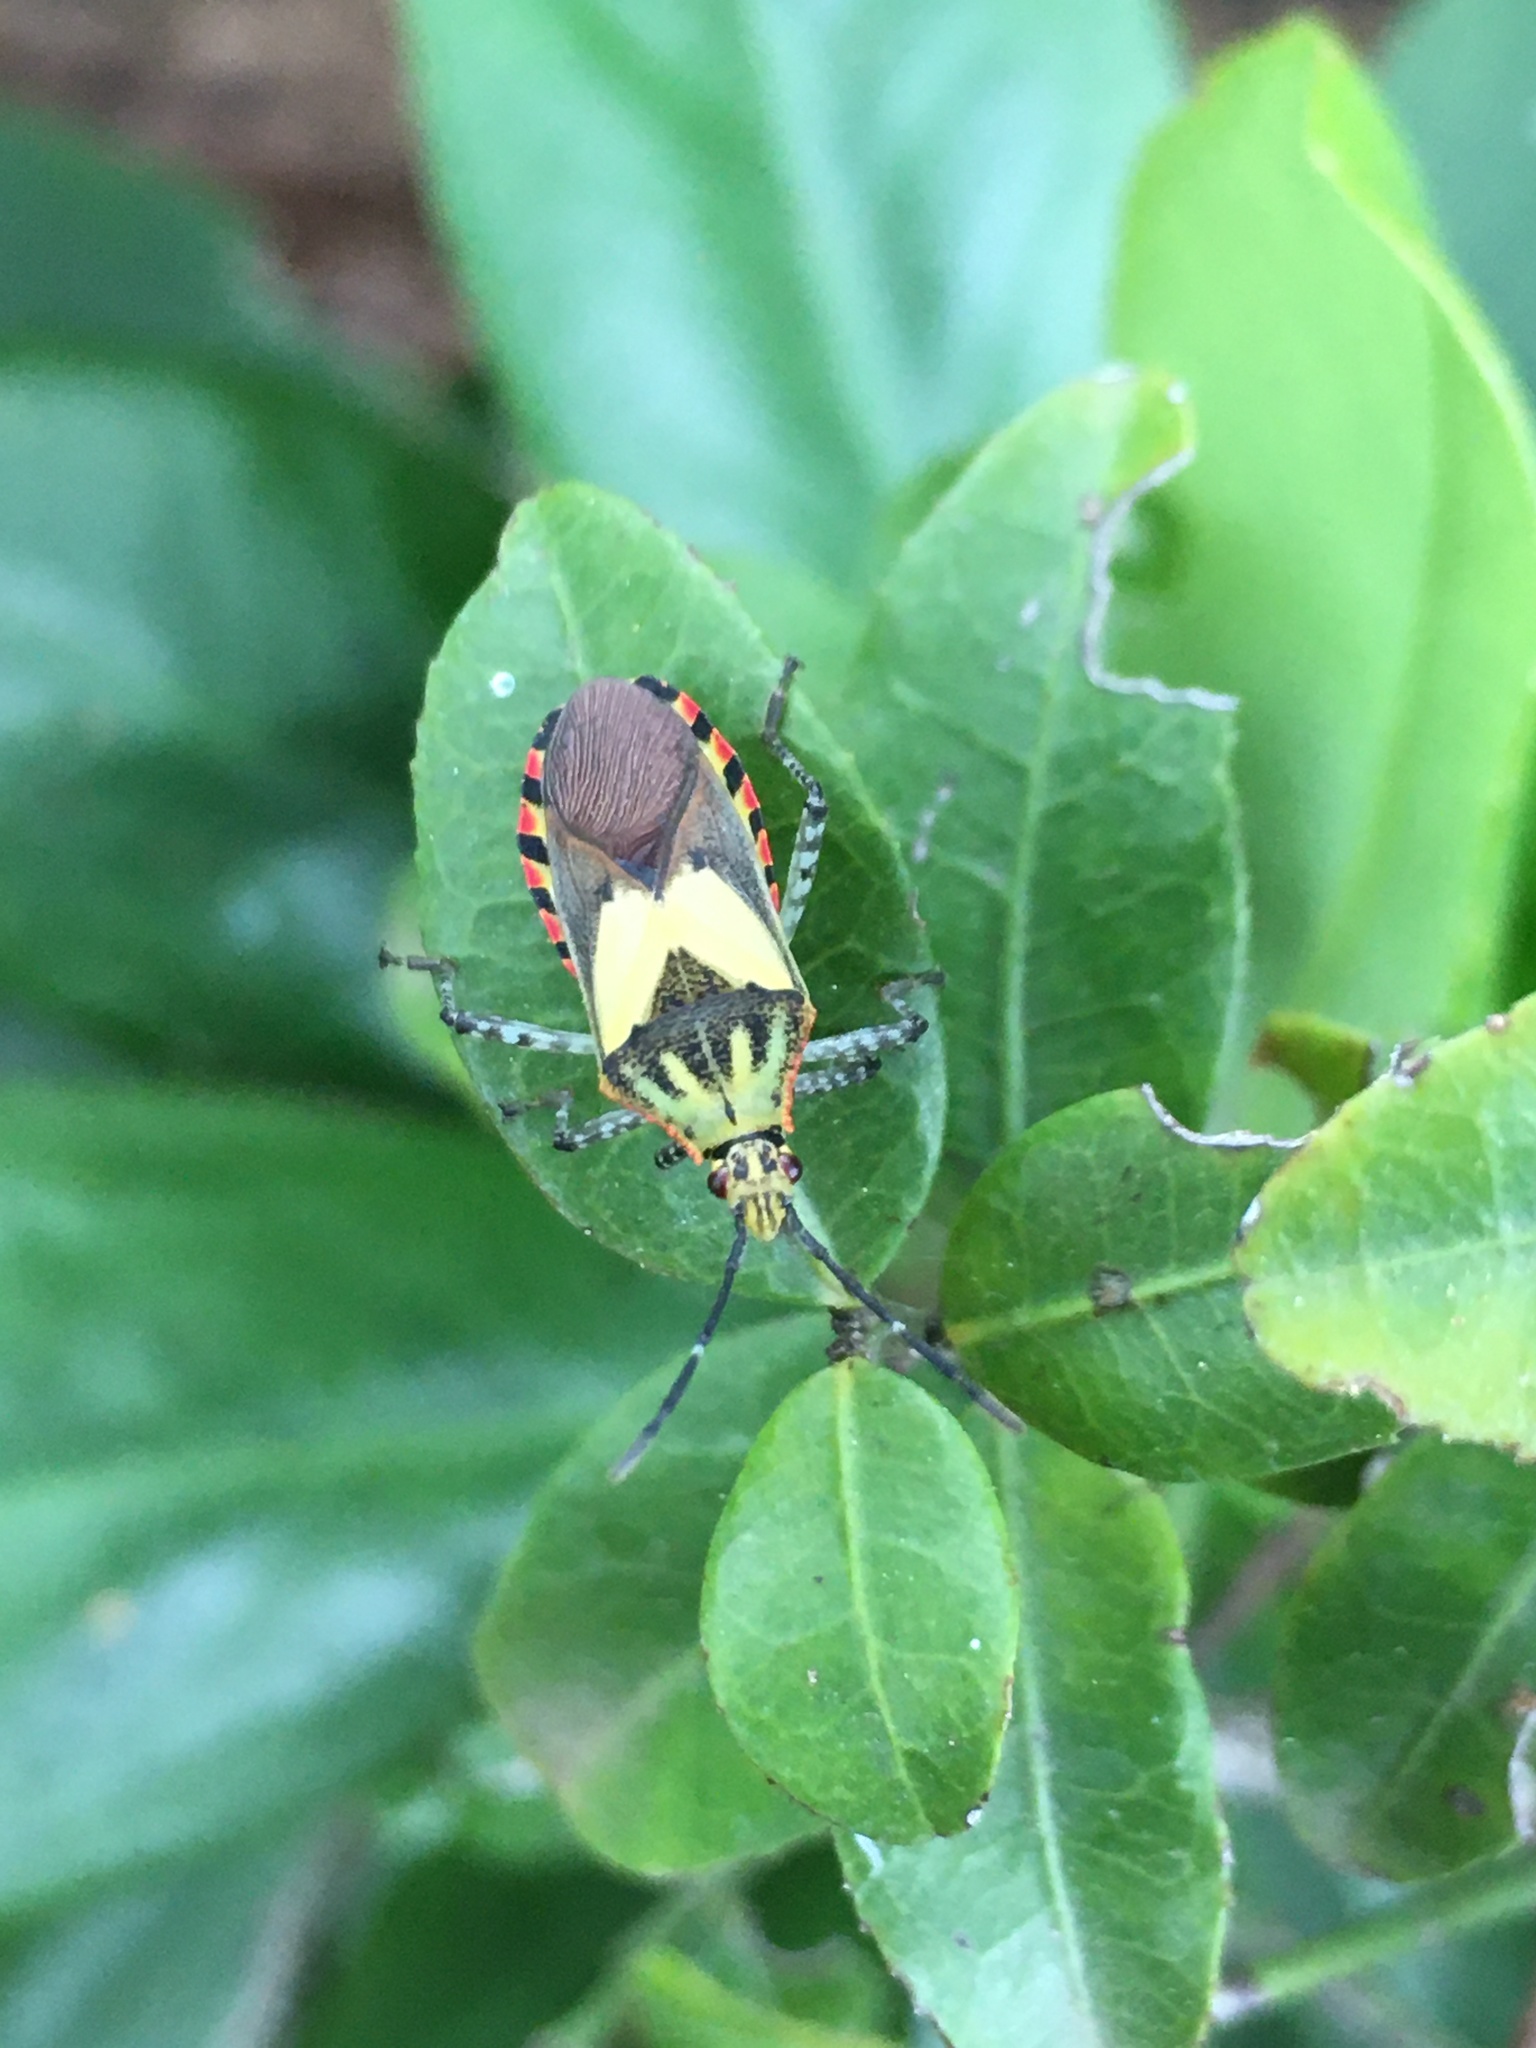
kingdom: Animalia
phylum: Arthropoda
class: Insecta
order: Hemiptera
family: Coreidae
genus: Acidomeria
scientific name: Acidomeria cincticornis
